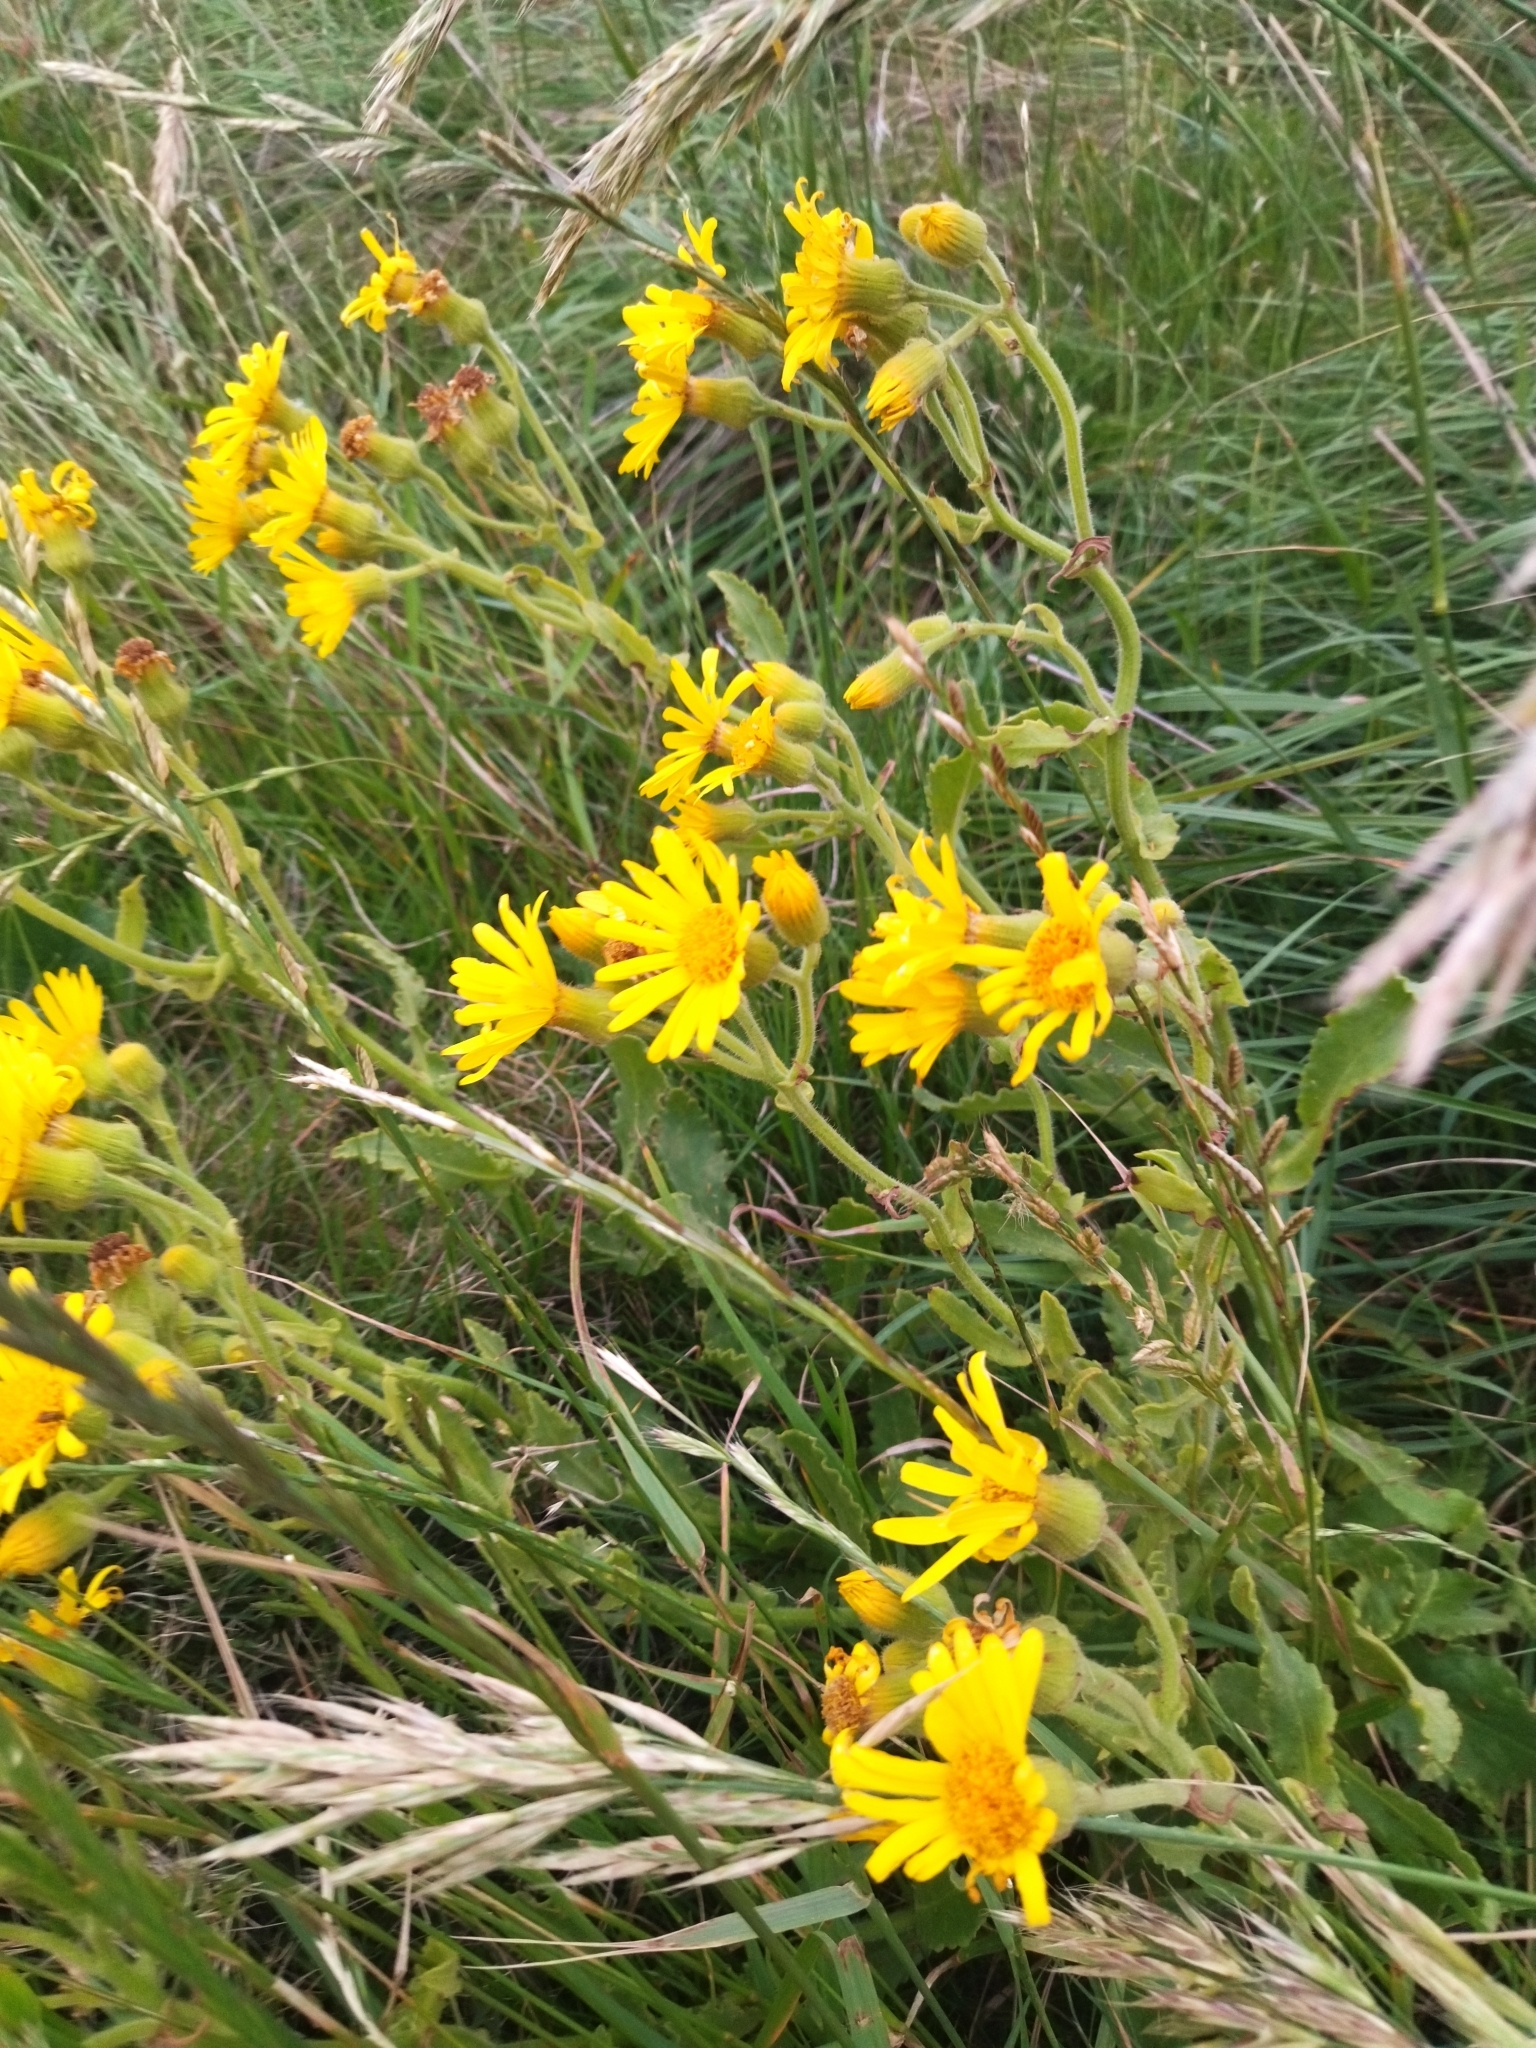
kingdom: Plantae
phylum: Tracheophyta
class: Magnoliopsida
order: Asterales
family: Asteraceae
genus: Senecio
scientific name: Senecio selloi
